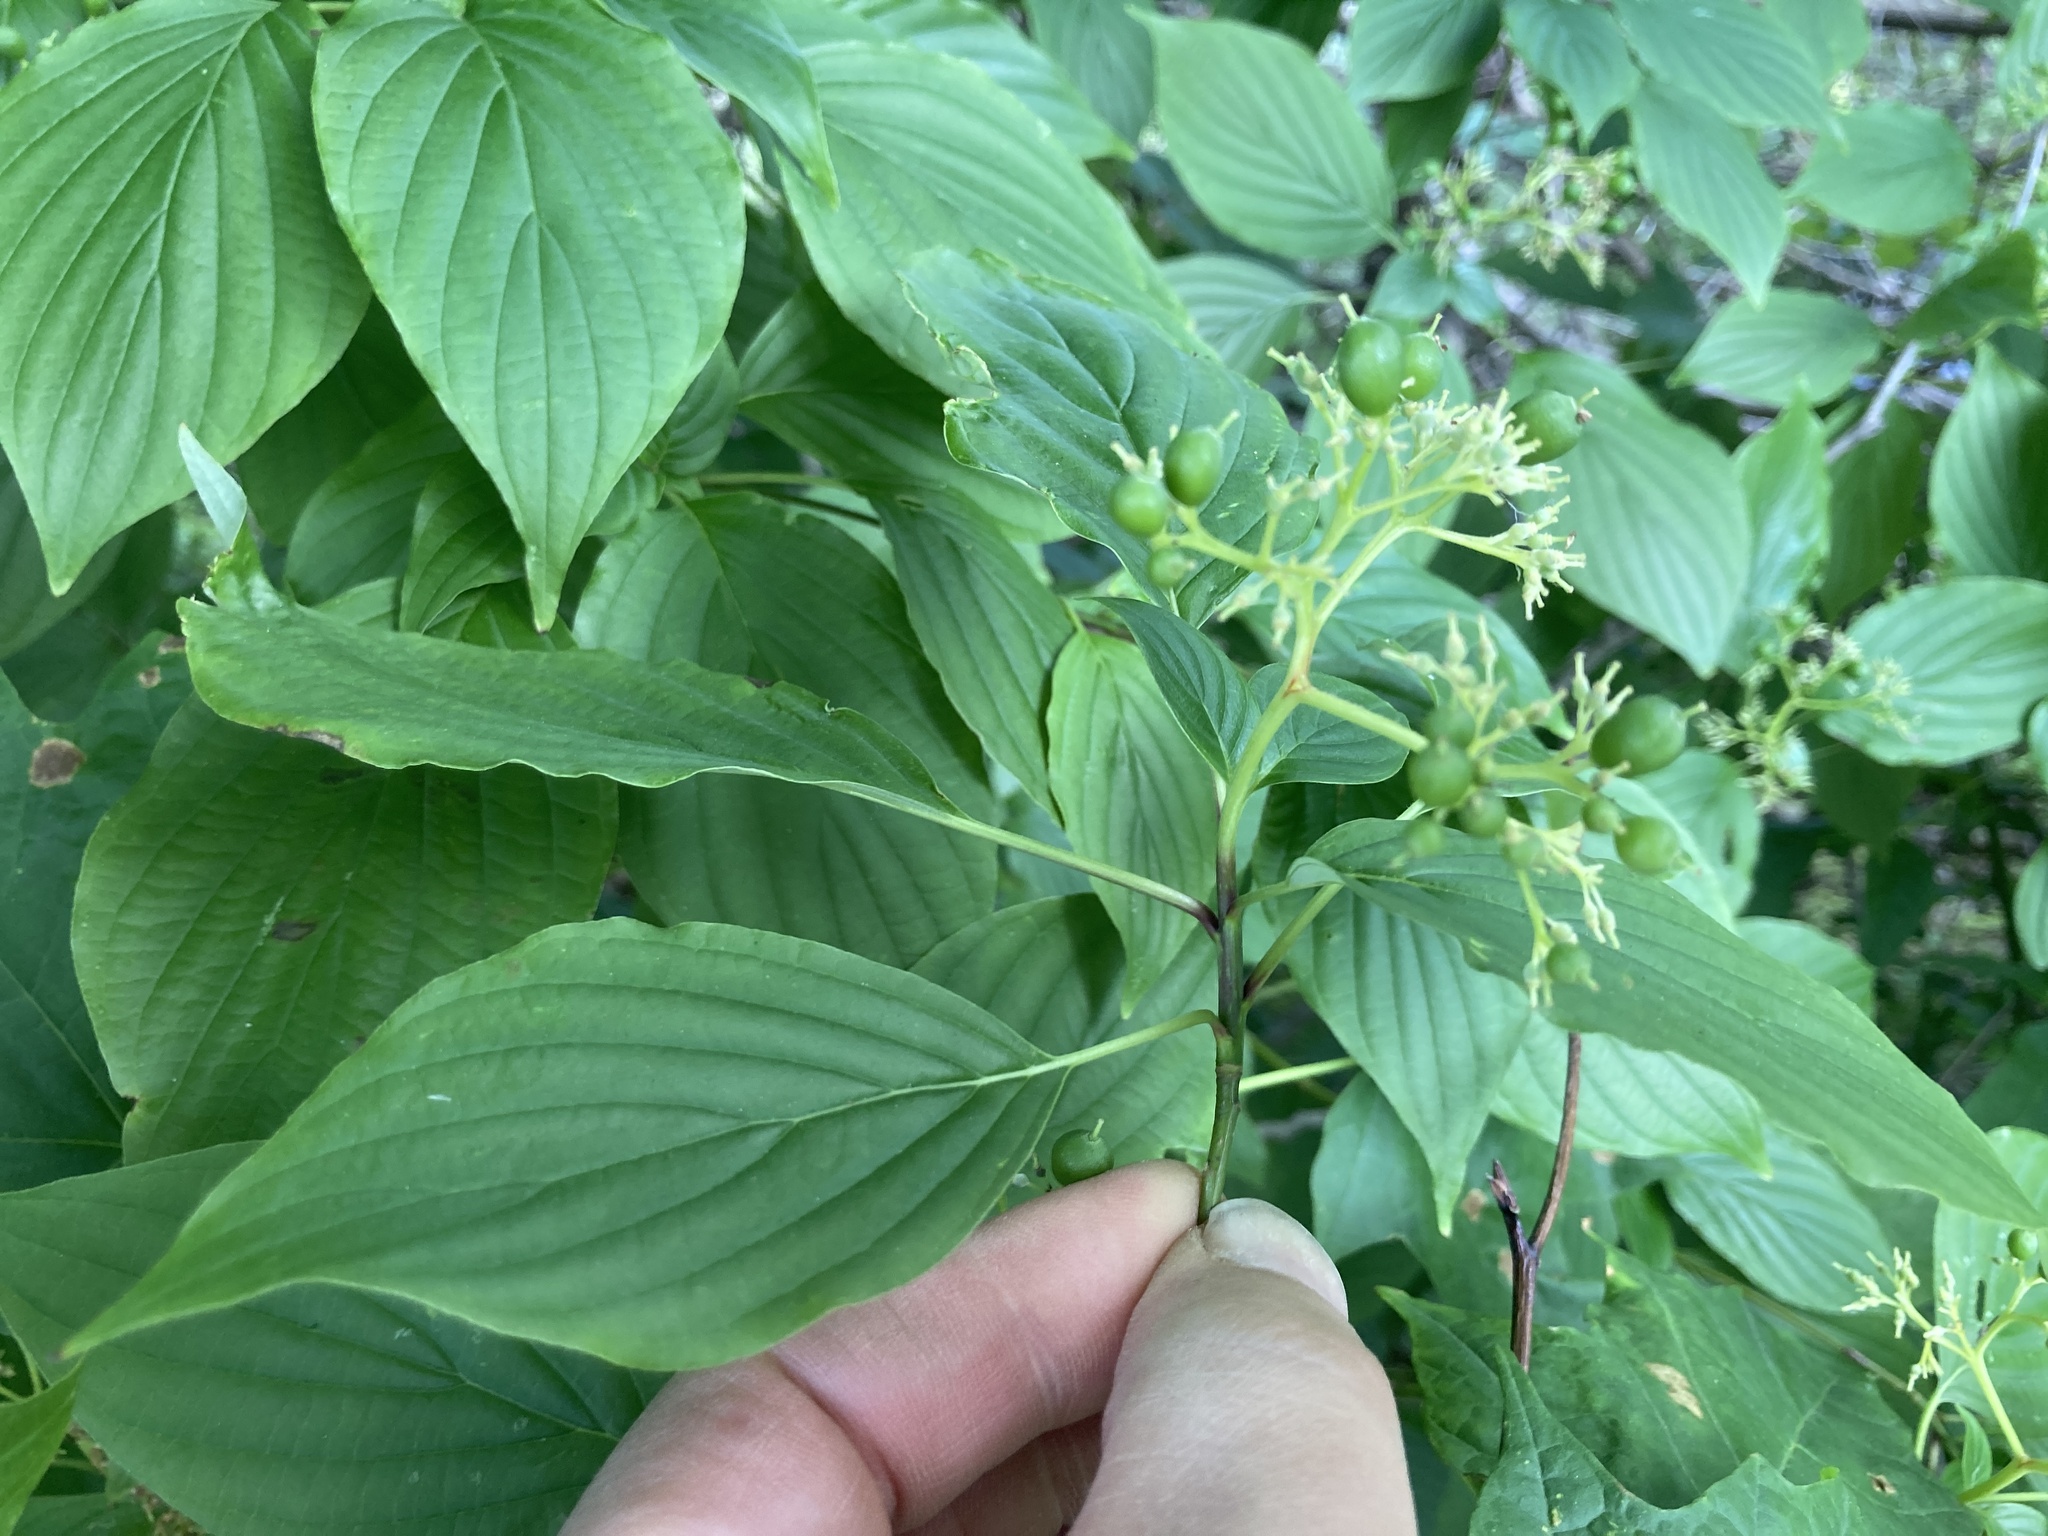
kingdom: Plantae
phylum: Tracheophyta
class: Magnoliopsida
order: Cornales
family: Cornaceae
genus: Cornus
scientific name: Cornus alternifolia
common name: Pagoda dogwood
